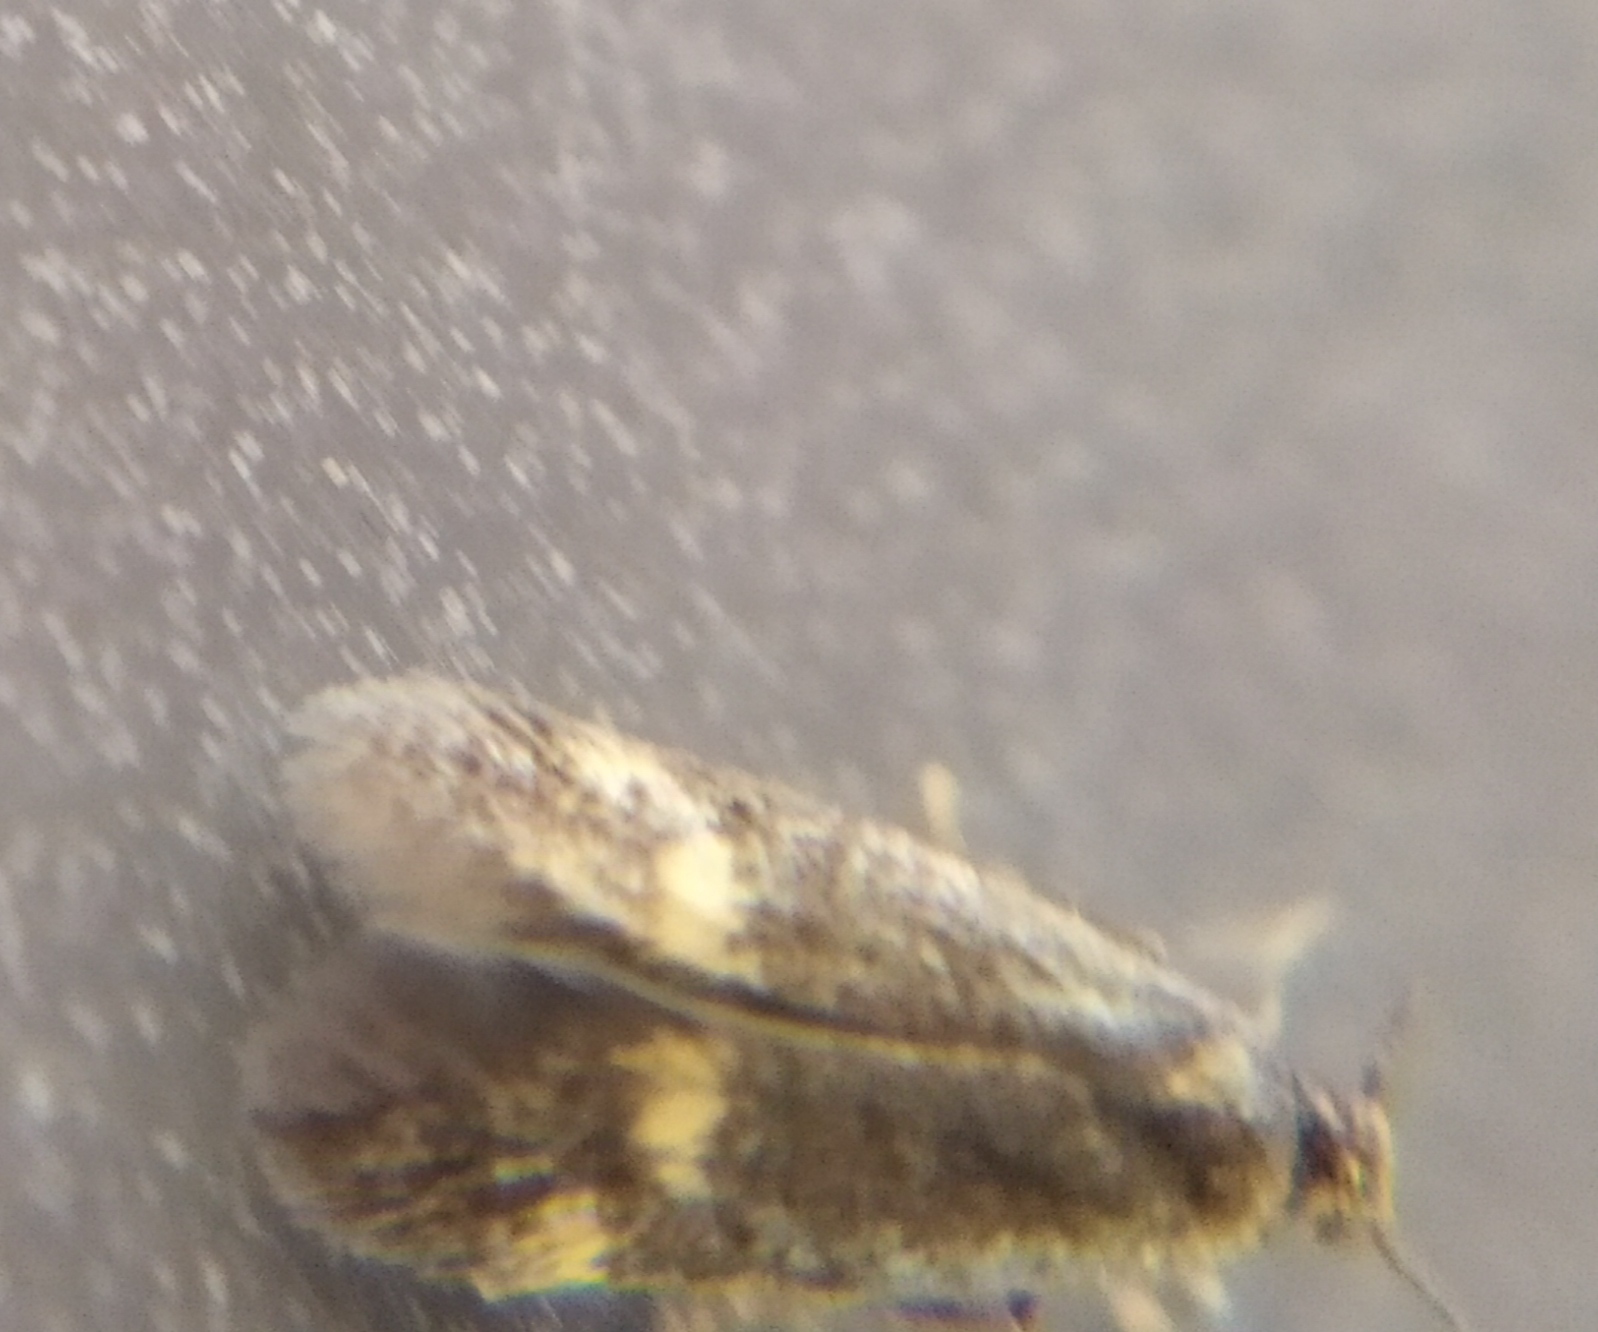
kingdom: Animalia
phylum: Arthropoda
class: Insecta
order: Lepidoptera
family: Oecophoridae
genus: Borkhausenia
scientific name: Borkhausenia minutella
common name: Thatch tubic
